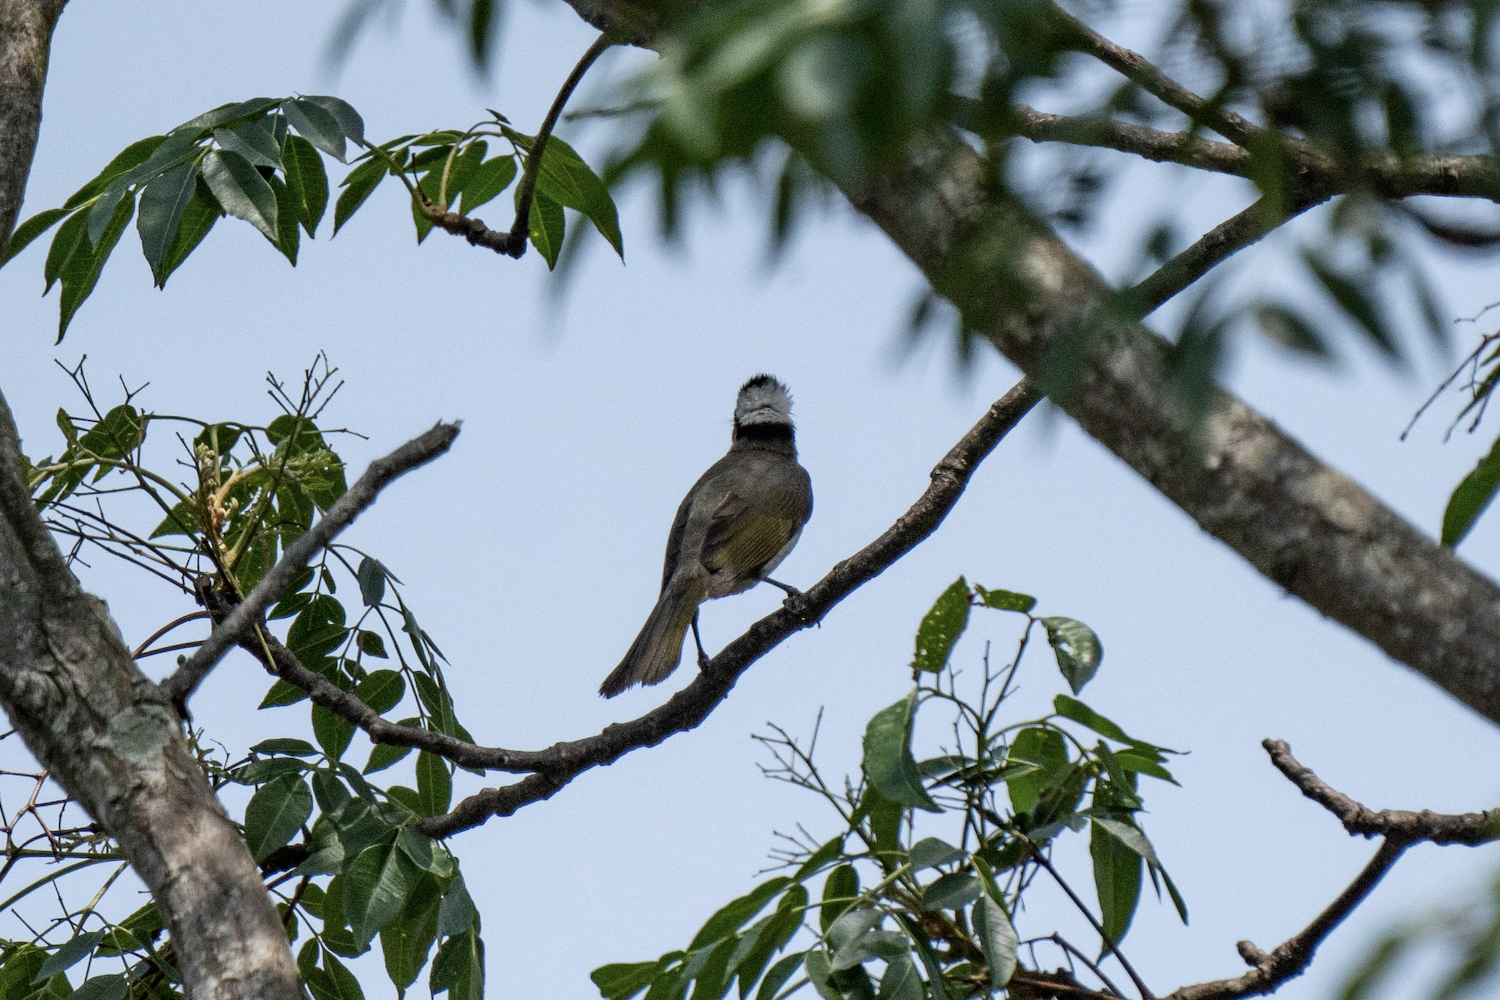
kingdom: Animalia
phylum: Chordata
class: Aves
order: Passeriformes
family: Pycnonotidae
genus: Pycnonotus
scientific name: Pycnonotus sinensis
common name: Light-vented bulbul
